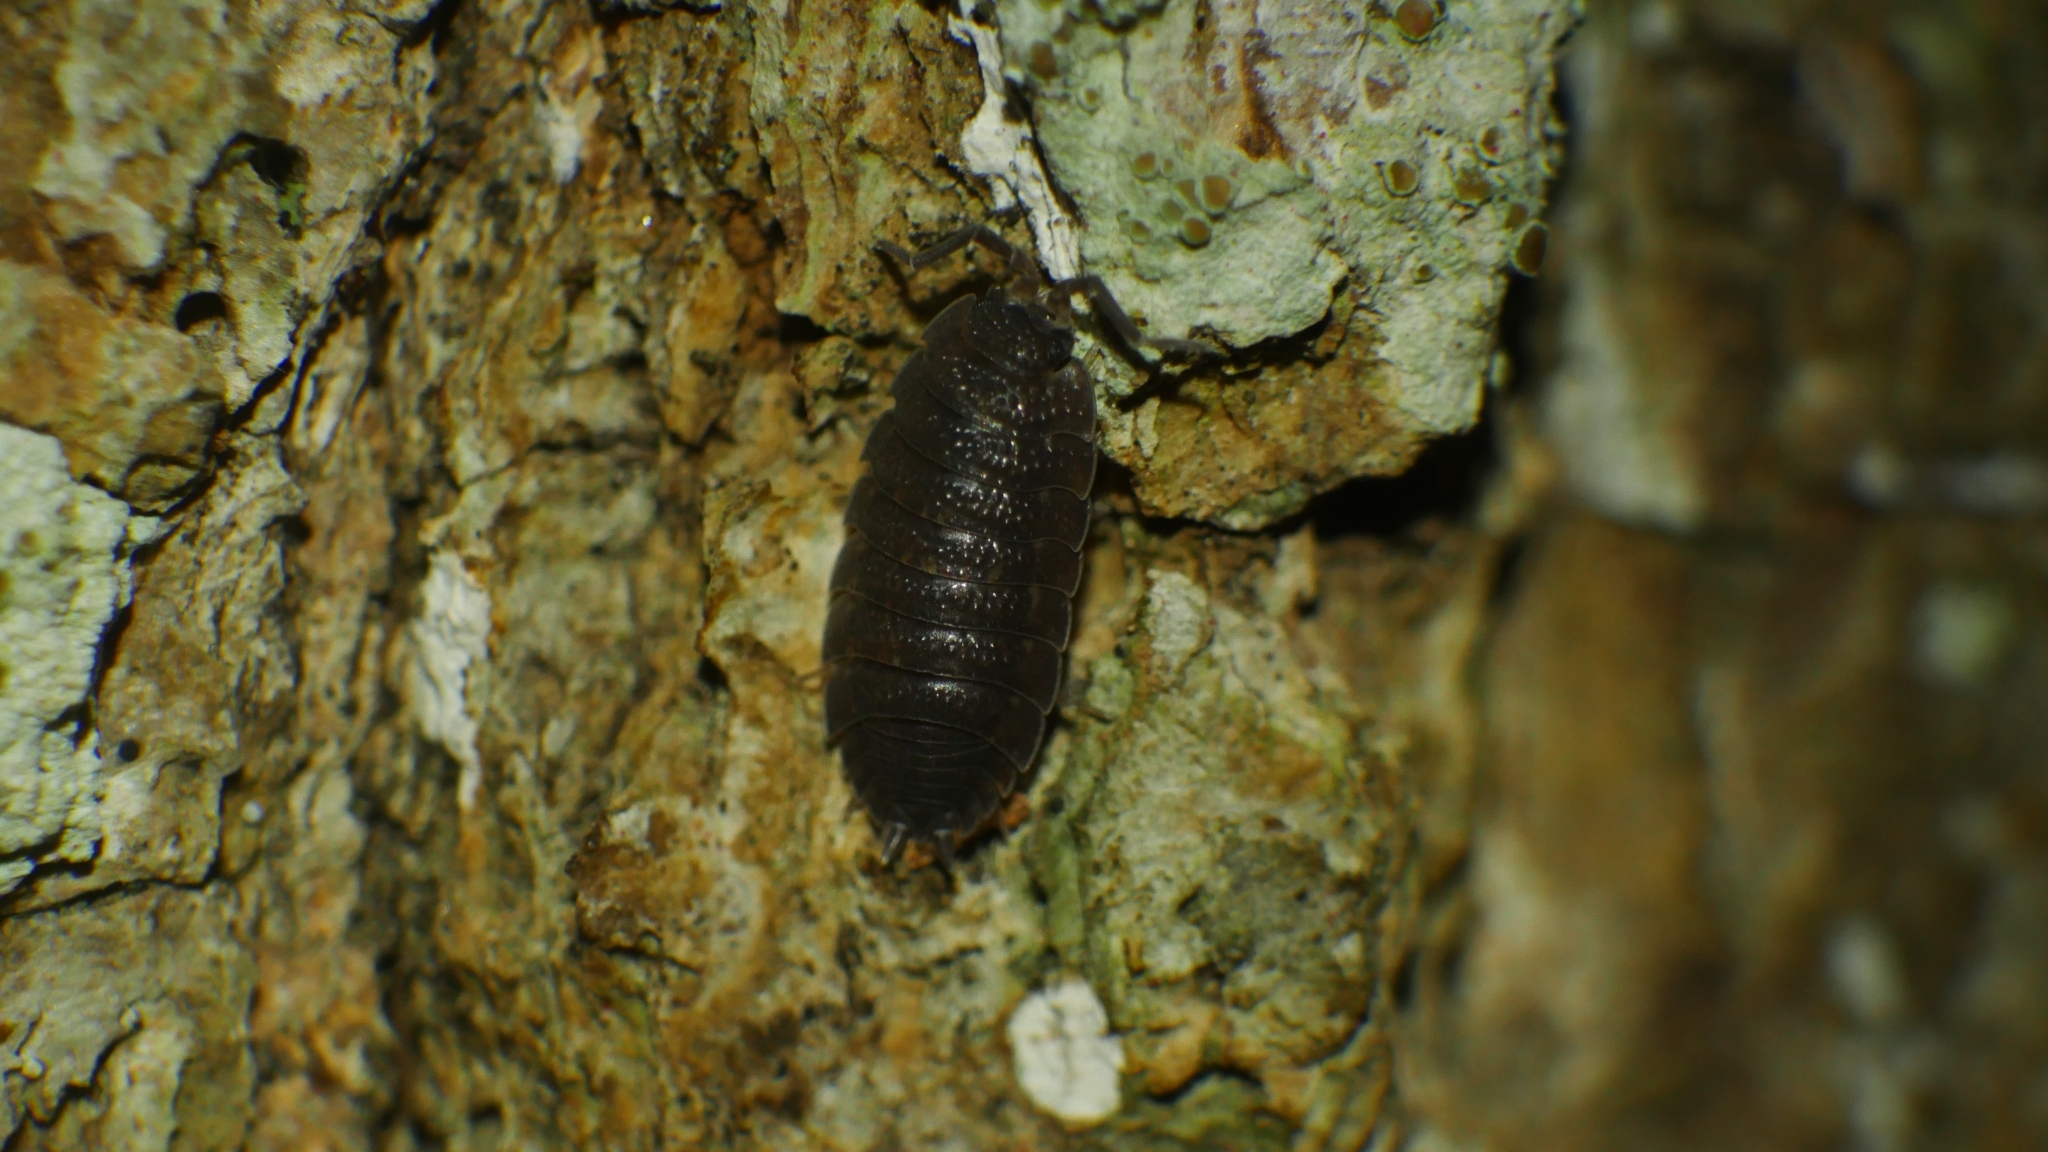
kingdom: Animalia
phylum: Arthropoda
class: Malacostraca
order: Isopoda
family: Porcellionidae
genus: Porcellio
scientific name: Porcellio scaber
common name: Common rough woodlouse
